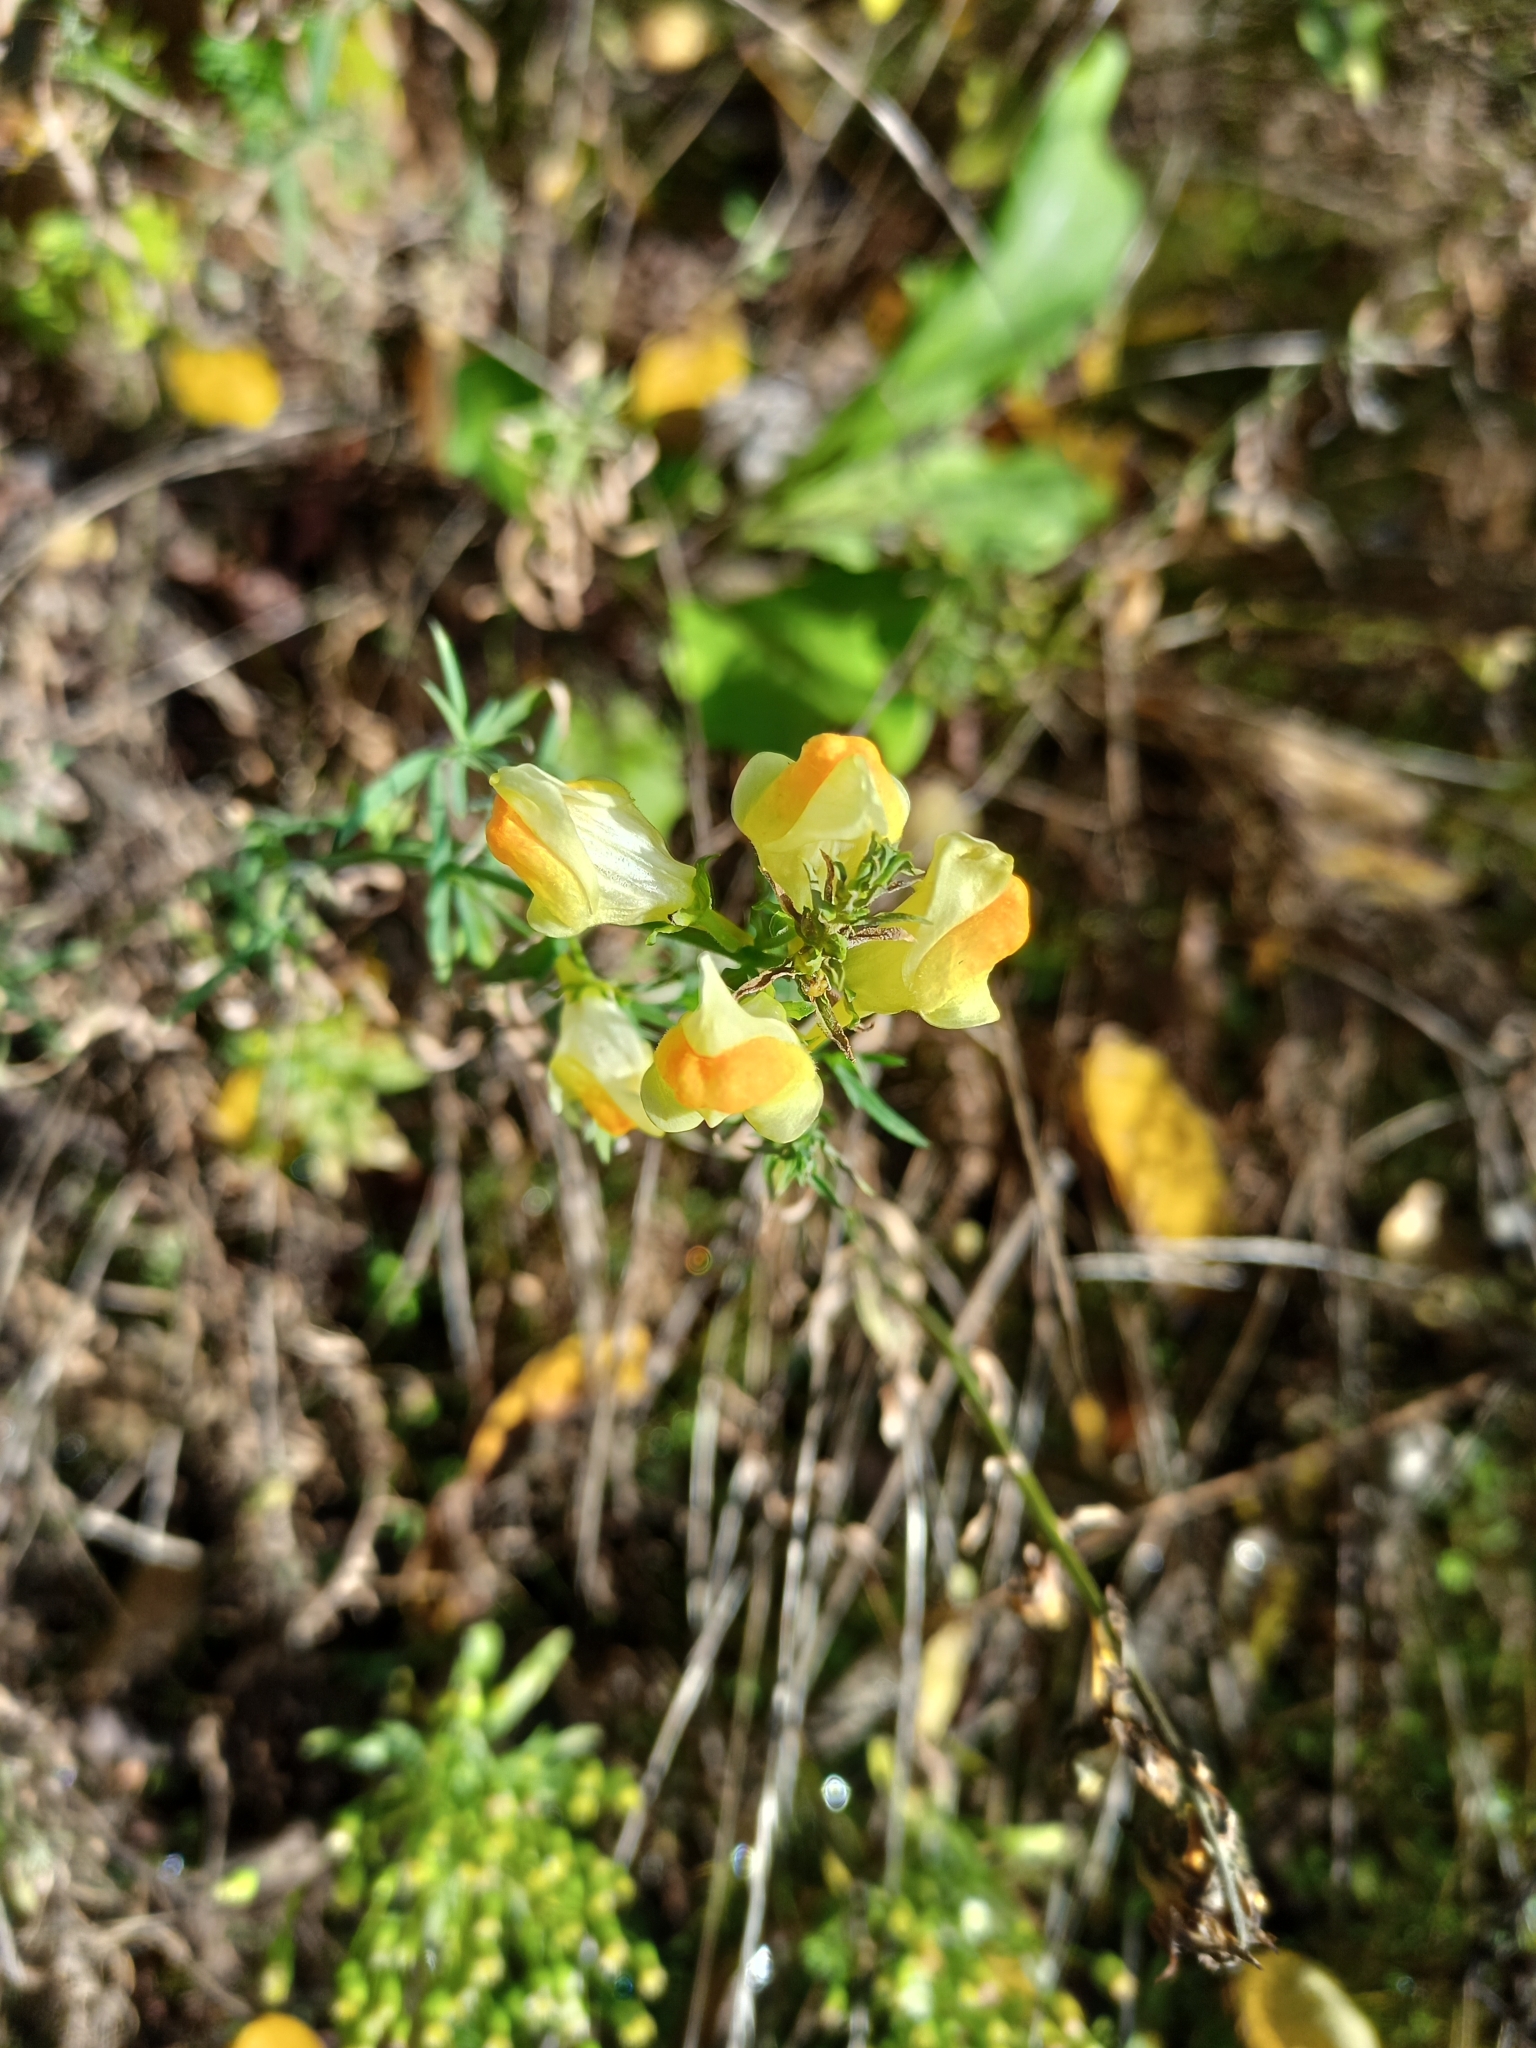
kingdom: Plantae
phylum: Tracheophyta
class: Magnoliopsida
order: Lamiales
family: Plantaginaceae
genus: Linaria
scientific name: Linaria vulgaris
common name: Butter and eggs
